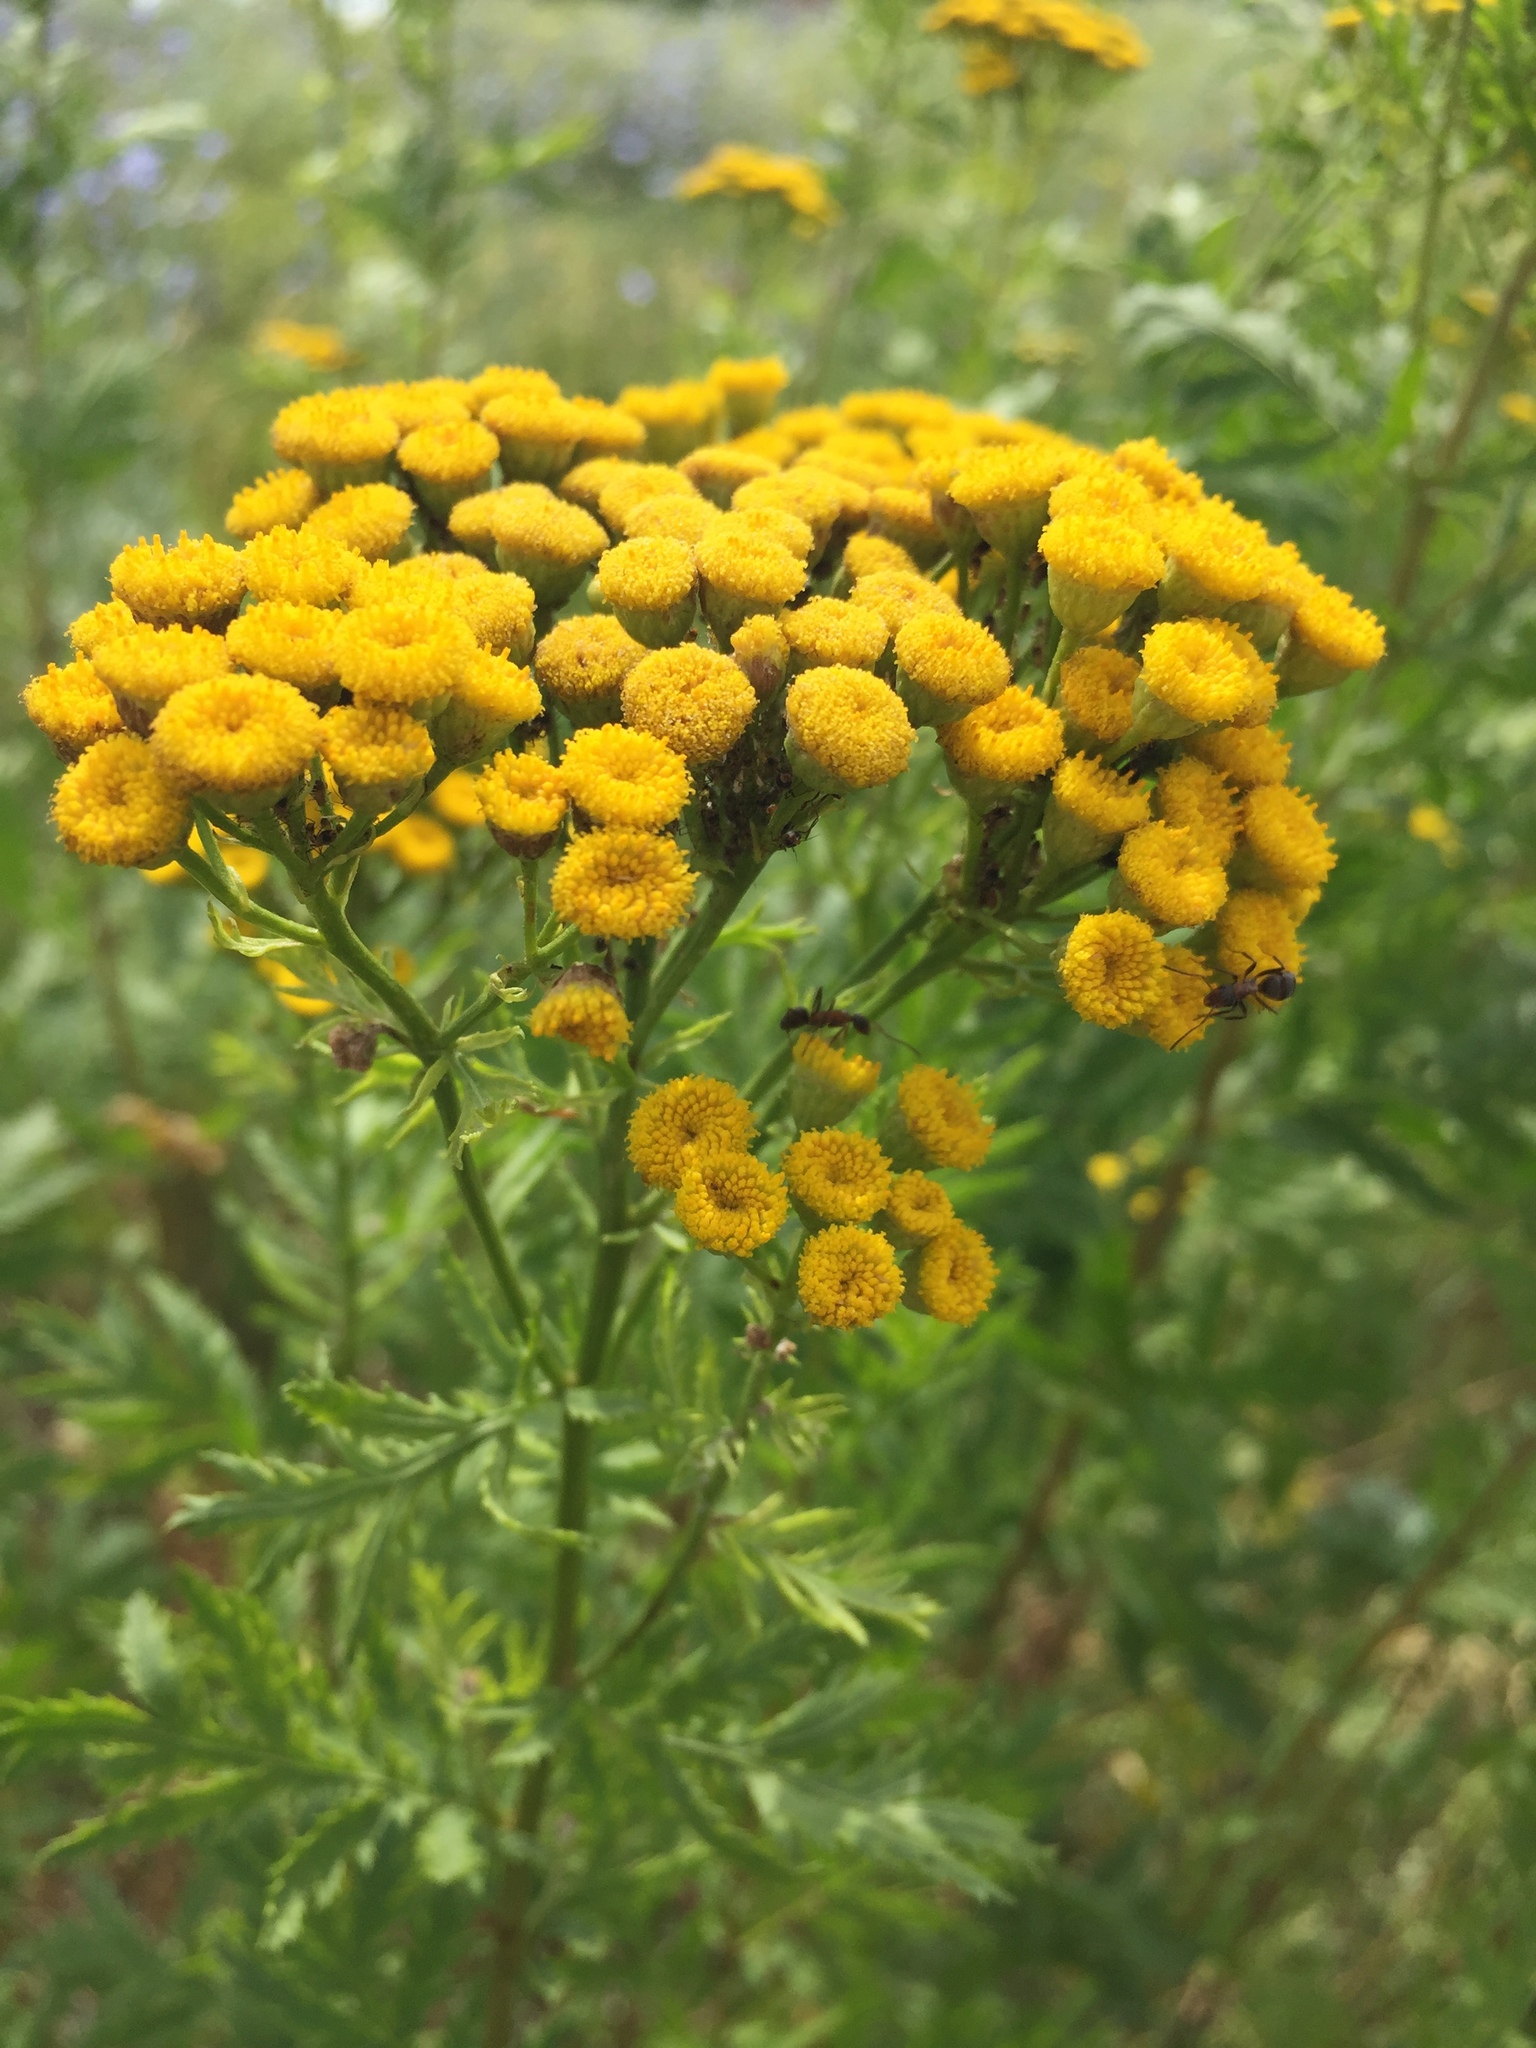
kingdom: Plantae
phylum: Tracheophyta
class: Magnoliopsida
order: Asterales
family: Asteraceae
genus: Tanacetum
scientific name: Tanacetum vulgare
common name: Common tansy
